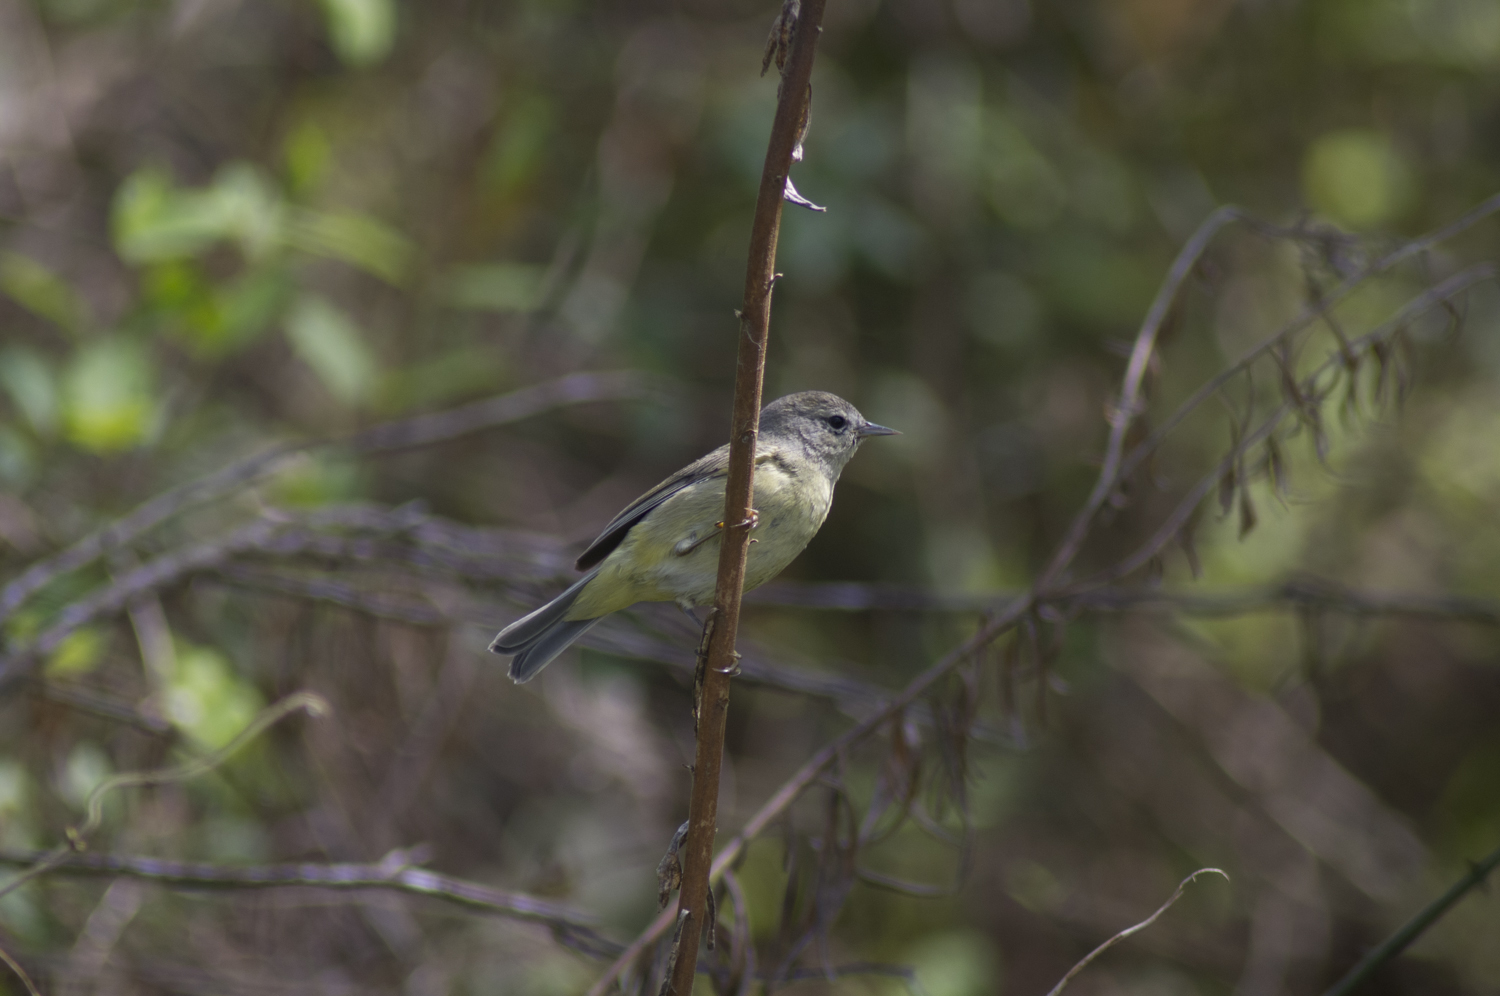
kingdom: Animalia
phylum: Chordata
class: Aves
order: Passeriformes
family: Parulidae
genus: Leiothlypis
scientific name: Leiothlypis celata
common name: Orange-crowned warbler
